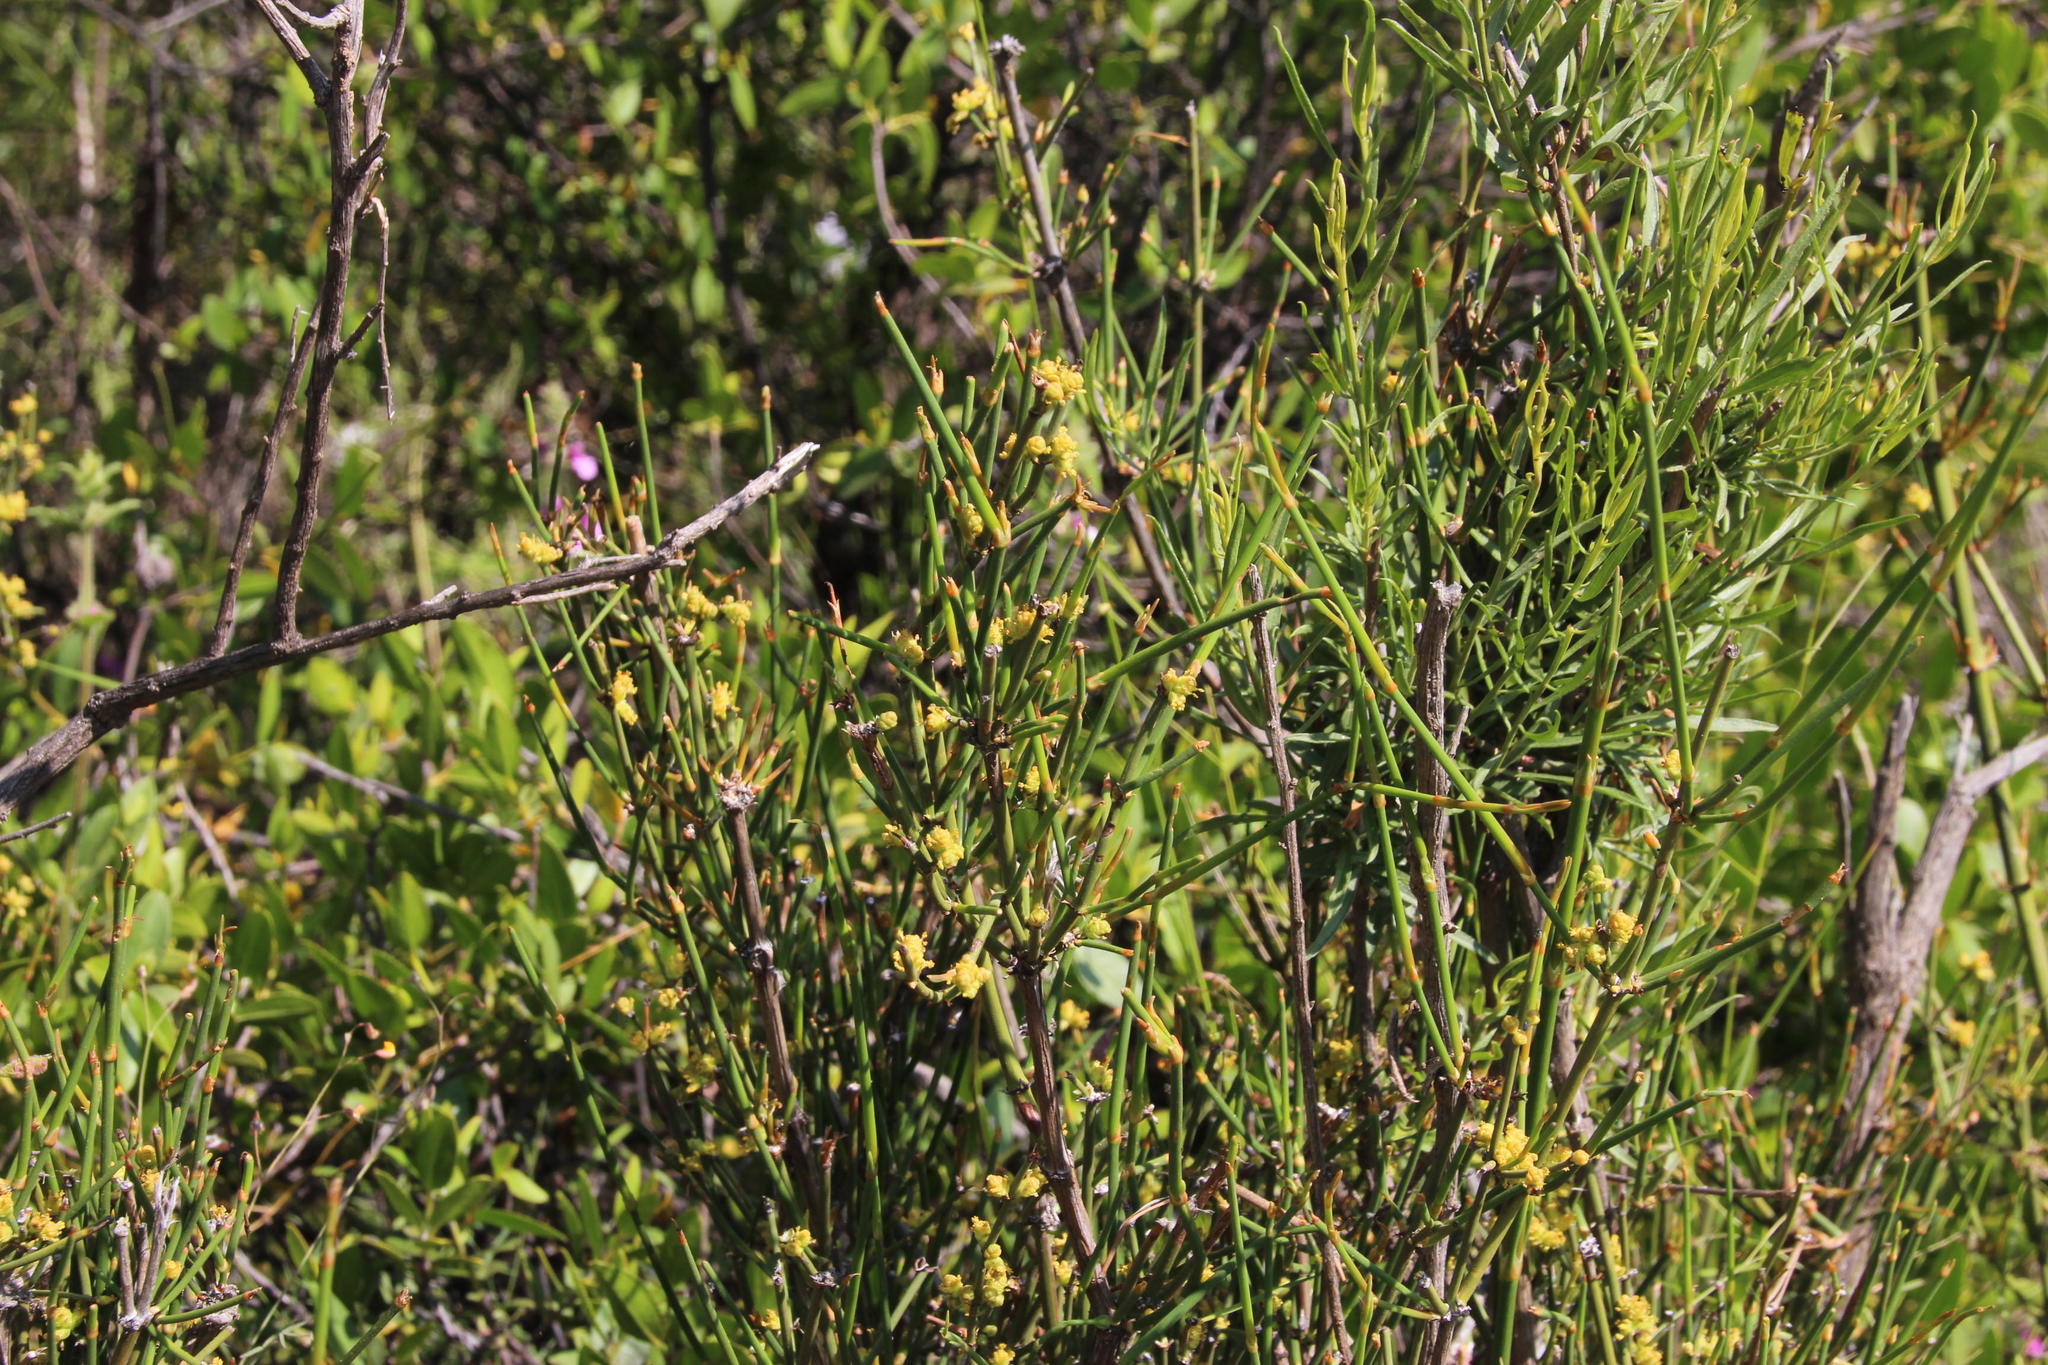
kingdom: Plantae
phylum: Tracheophyta
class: Gnetopsida
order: Ephedrales
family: Ephedraceae
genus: Ephedra
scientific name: Ephedra chilensis
